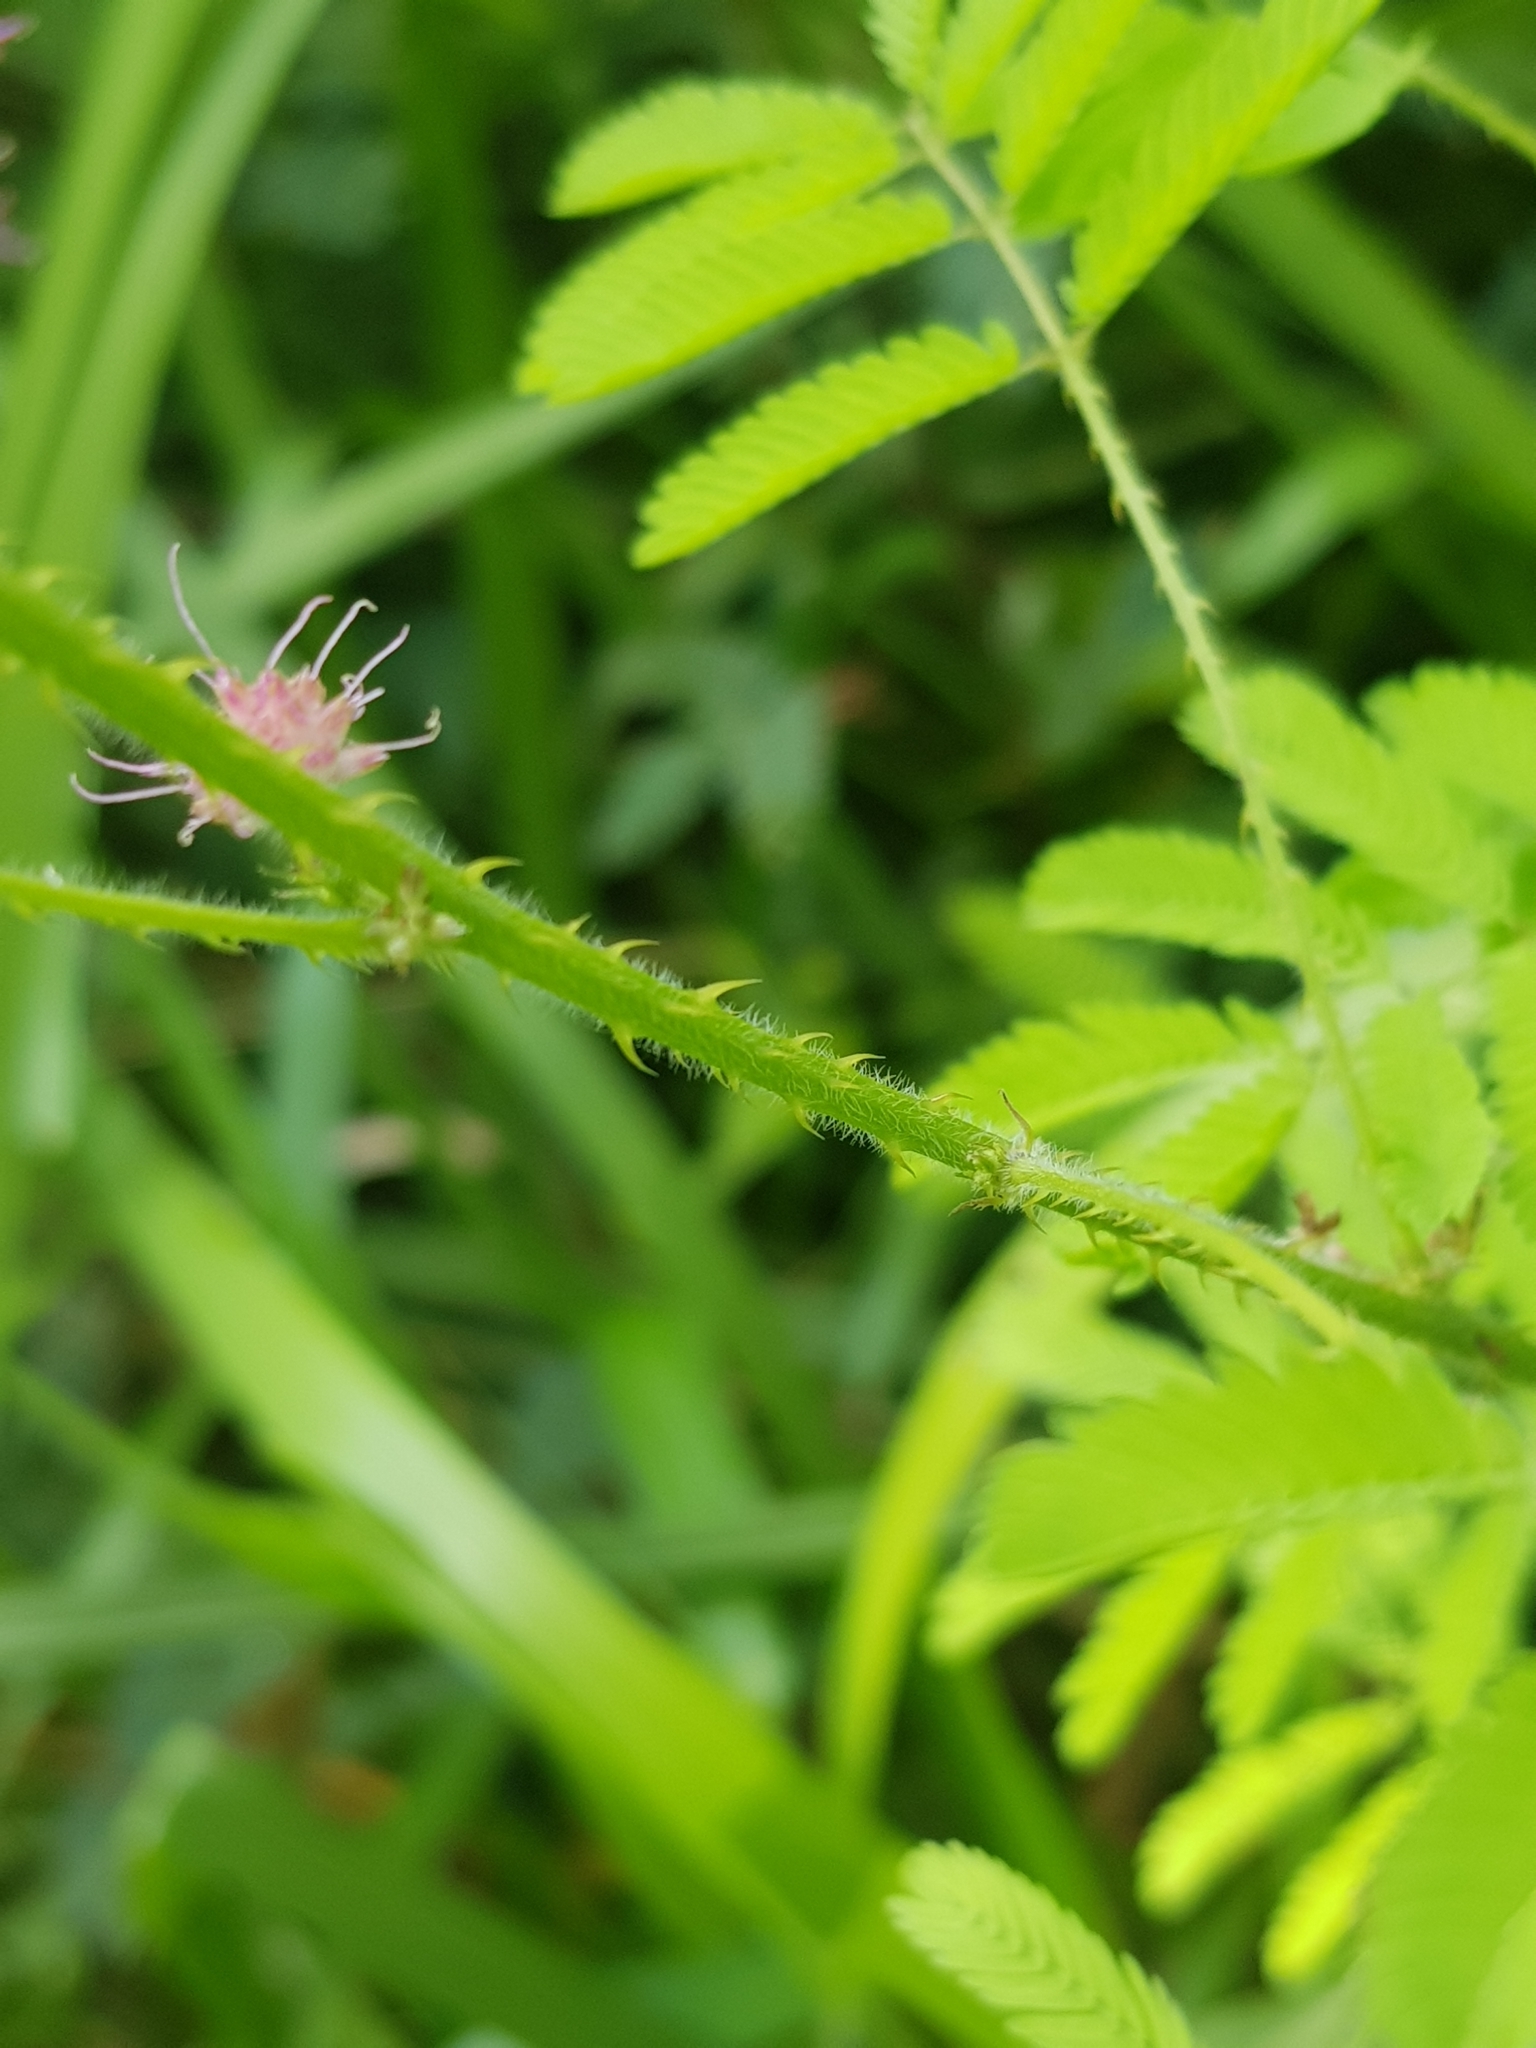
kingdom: Plantae
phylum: Tracheophyta
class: Magnoliopsida
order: Fabales
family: Fabaceae
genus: Mimosa
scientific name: Mimosa diplotricha
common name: Giant sensitive-plant
